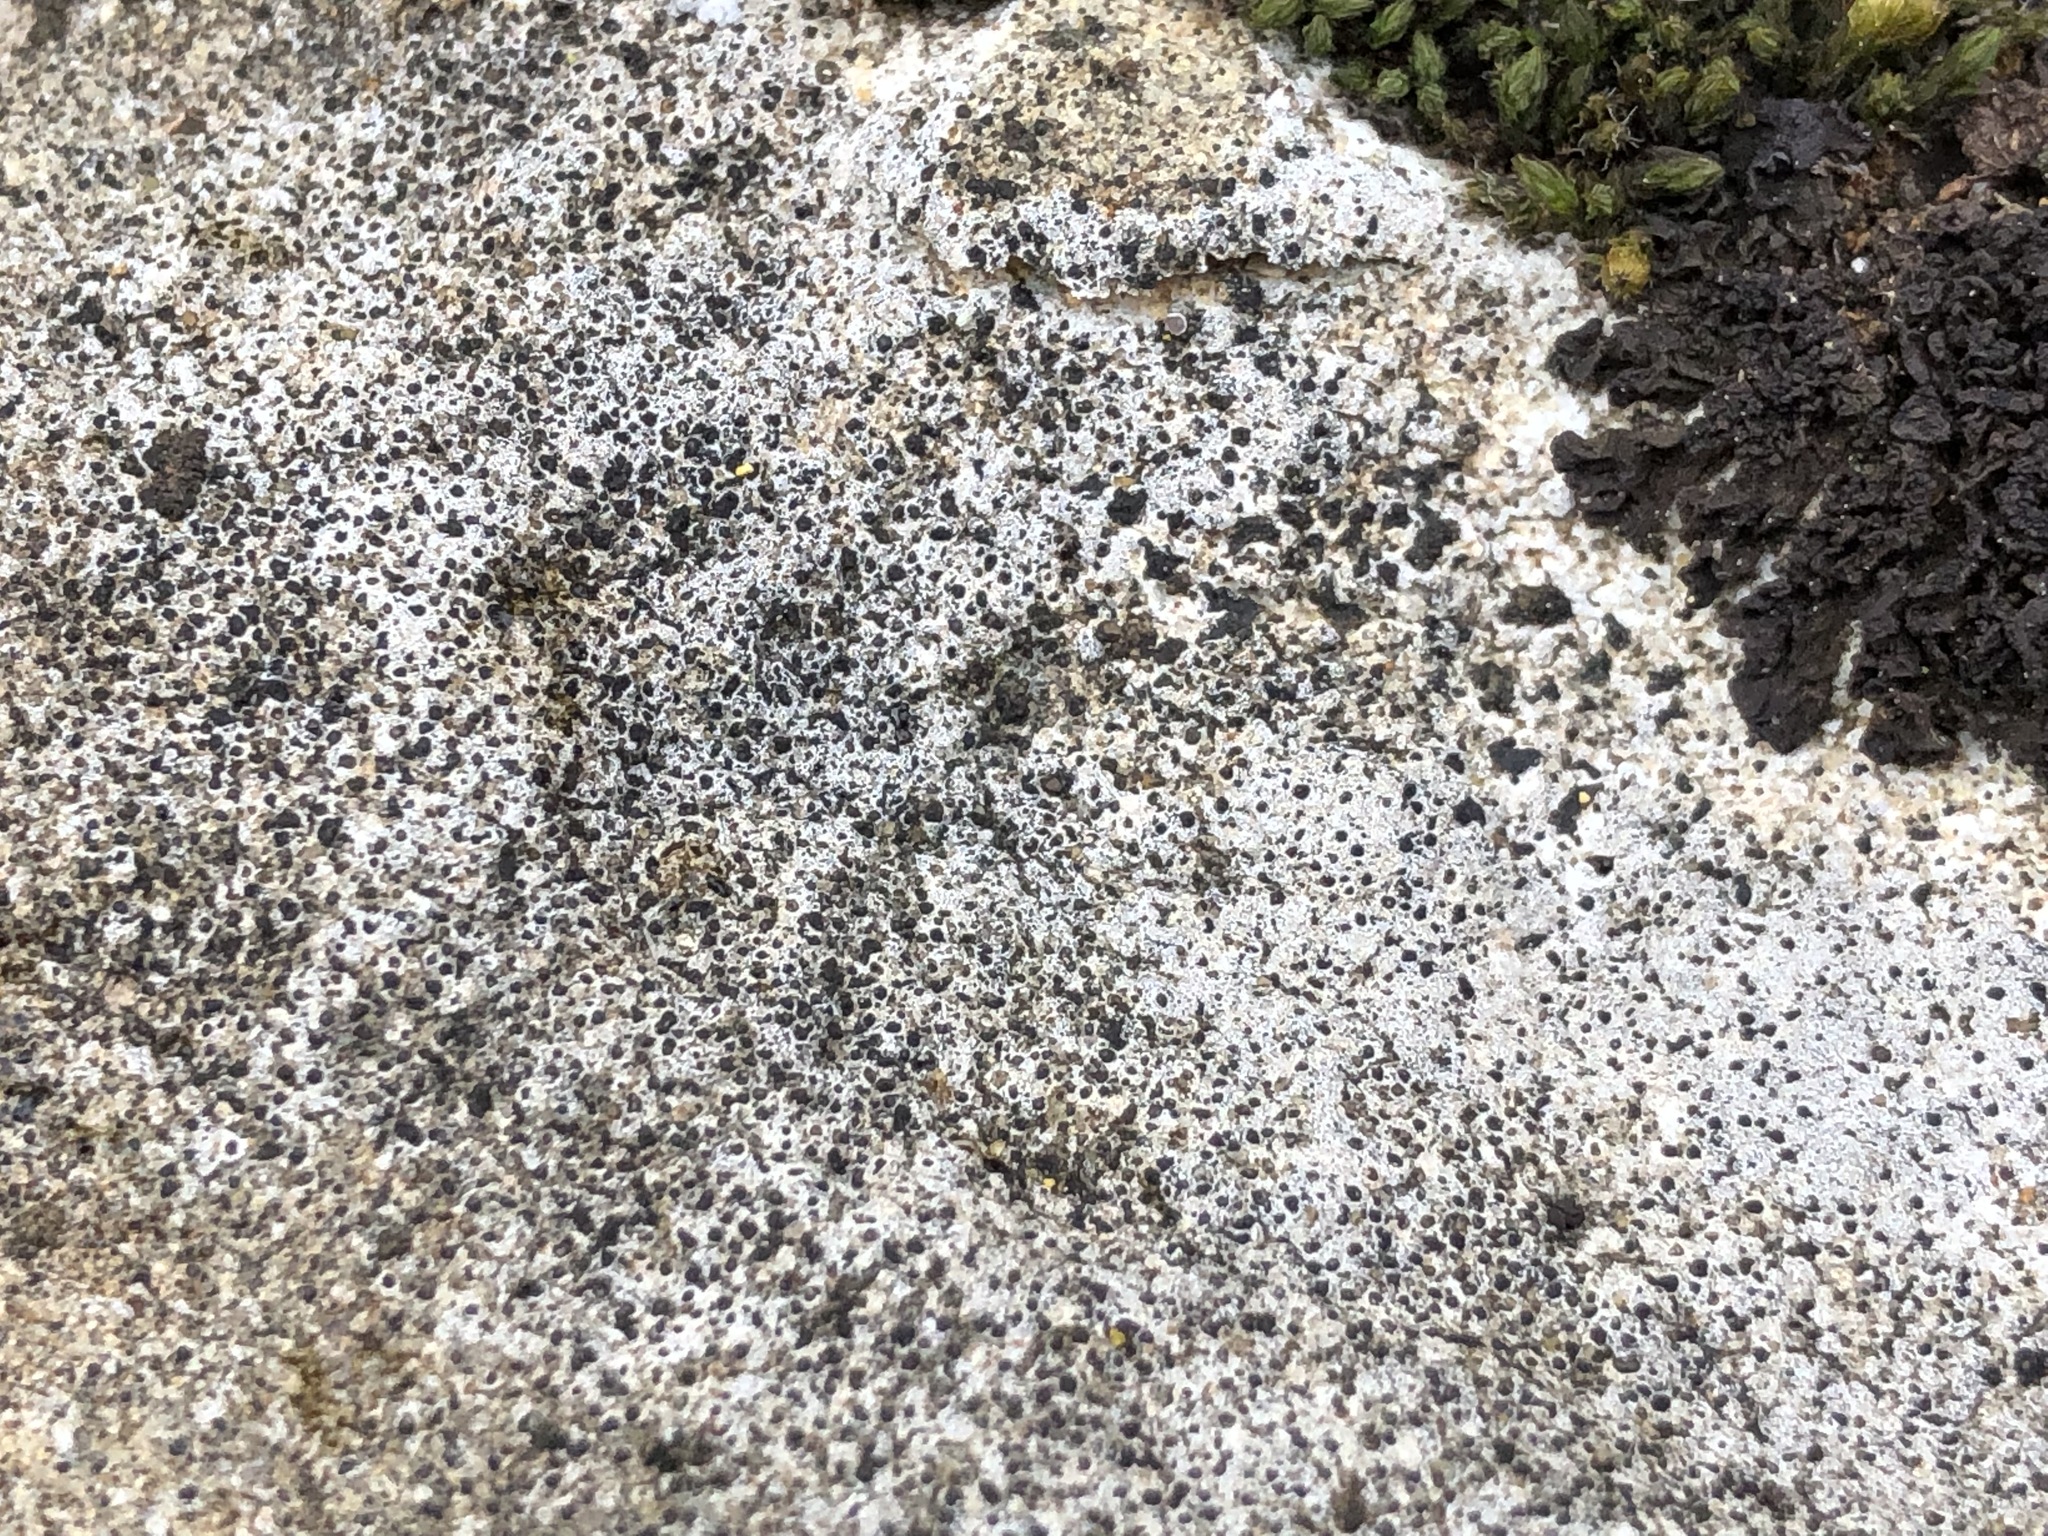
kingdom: Fungi
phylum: Ascomycota
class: Eurotiomycetes
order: Verrucariales
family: Verrucariaceae
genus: Bagliettoa
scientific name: Bagliettoa calciseda
